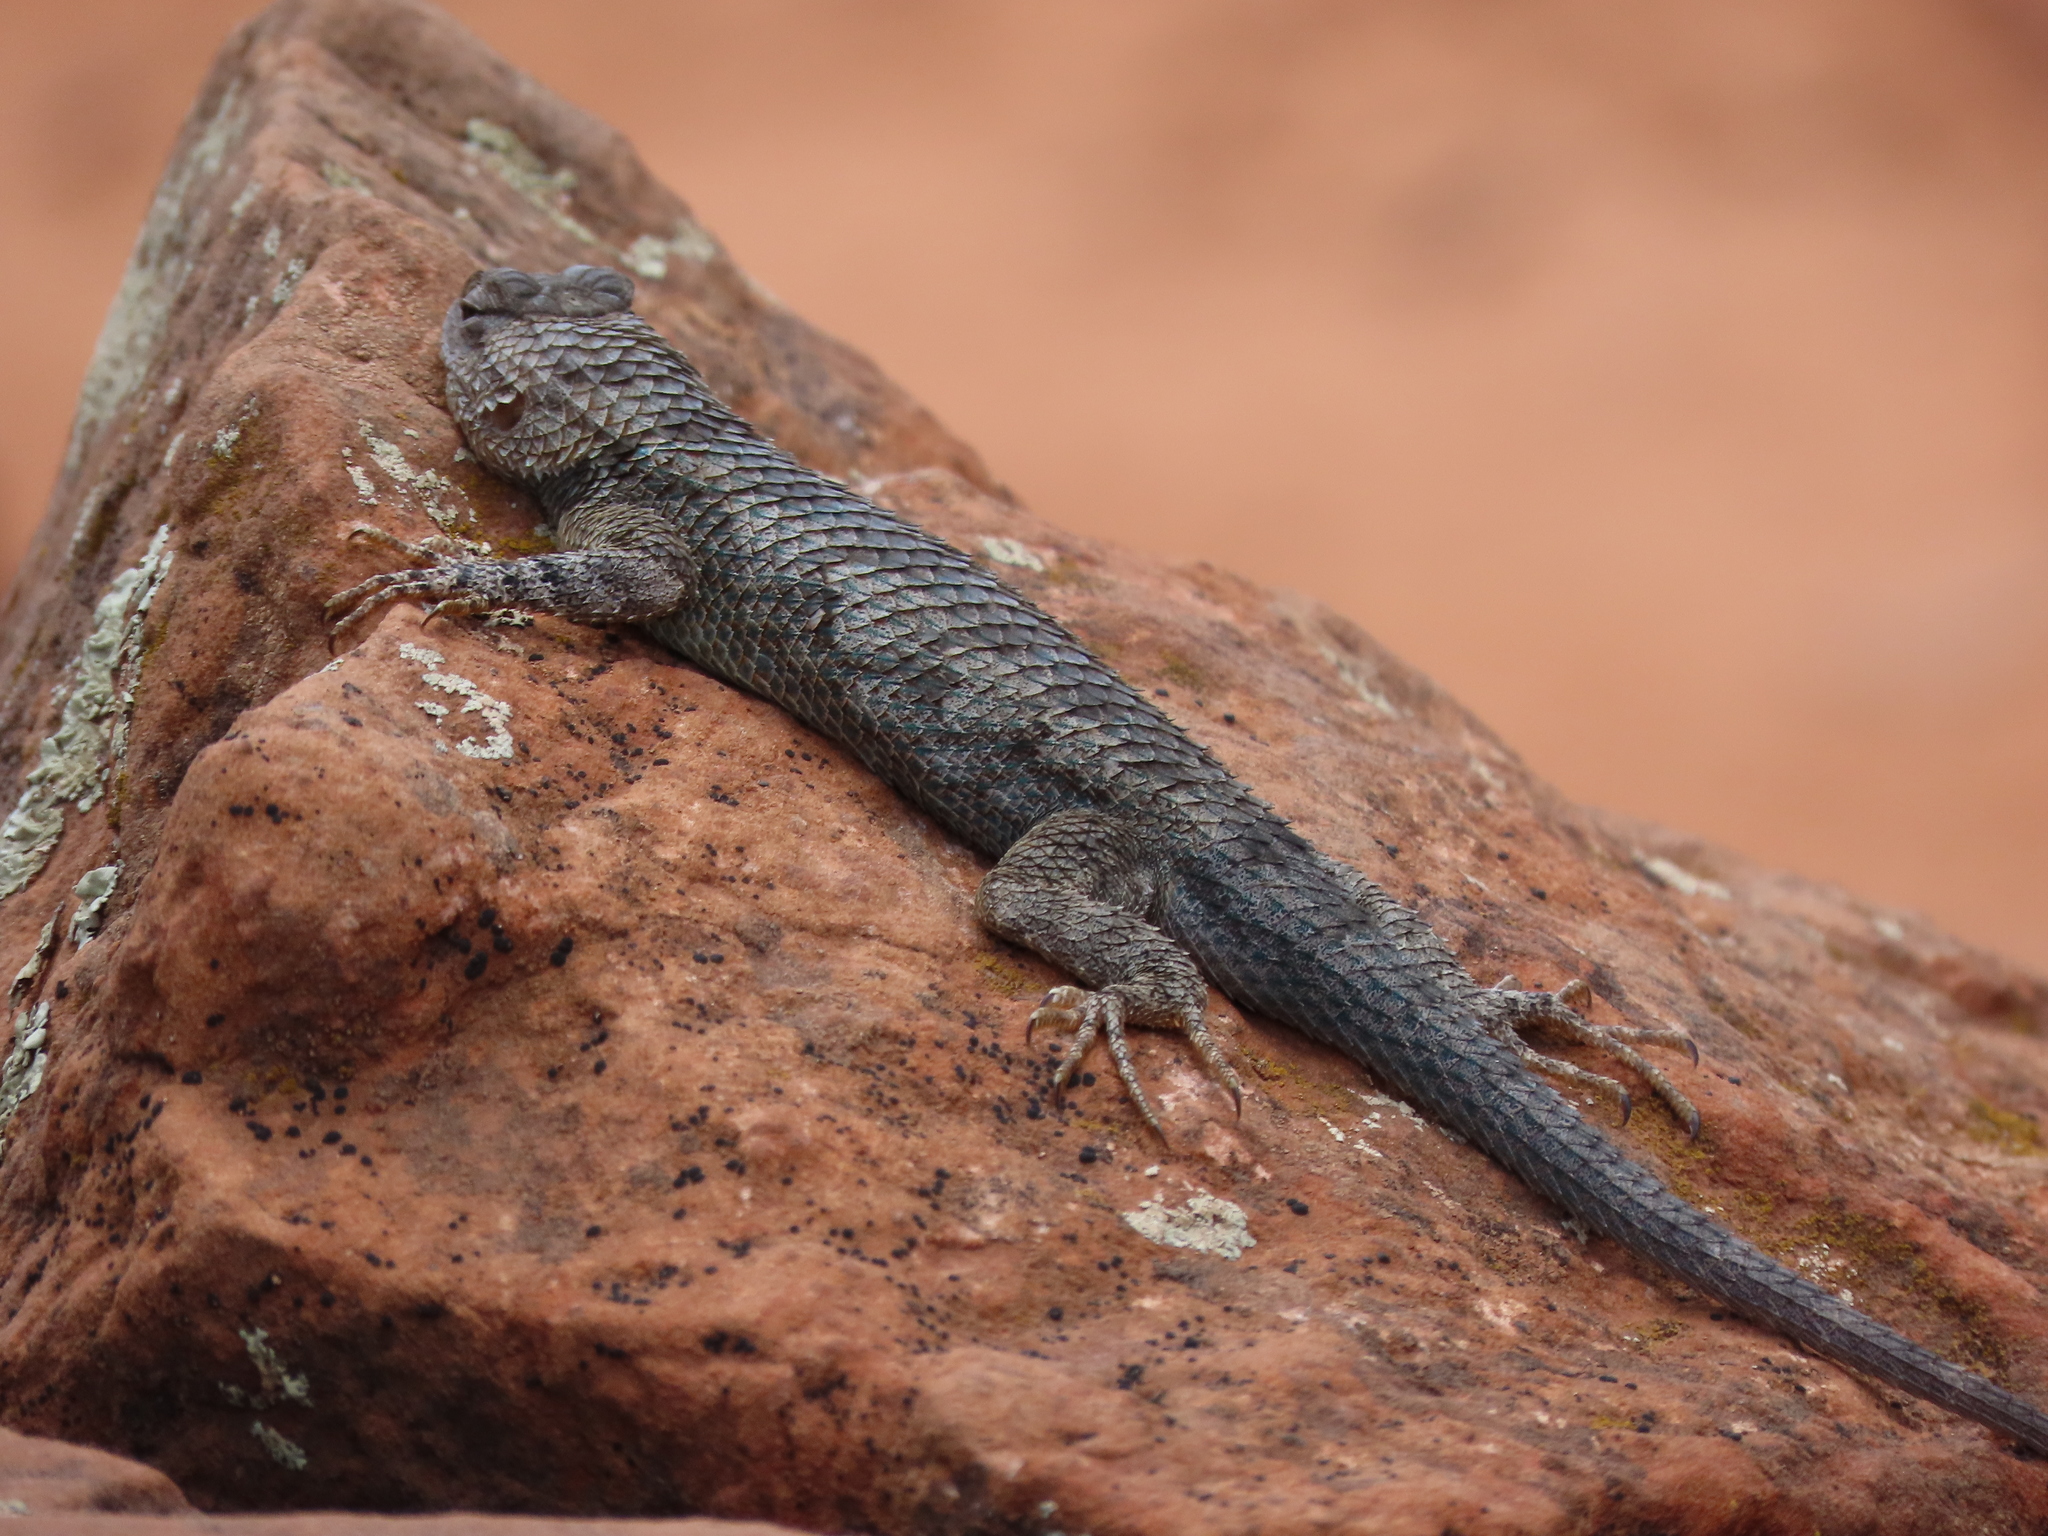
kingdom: Animalia
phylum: Chordata
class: Squamata
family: Phrynosomatidae
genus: Sceloporus
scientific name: Sceloporus clarkii
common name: Clark's spiny lizard
